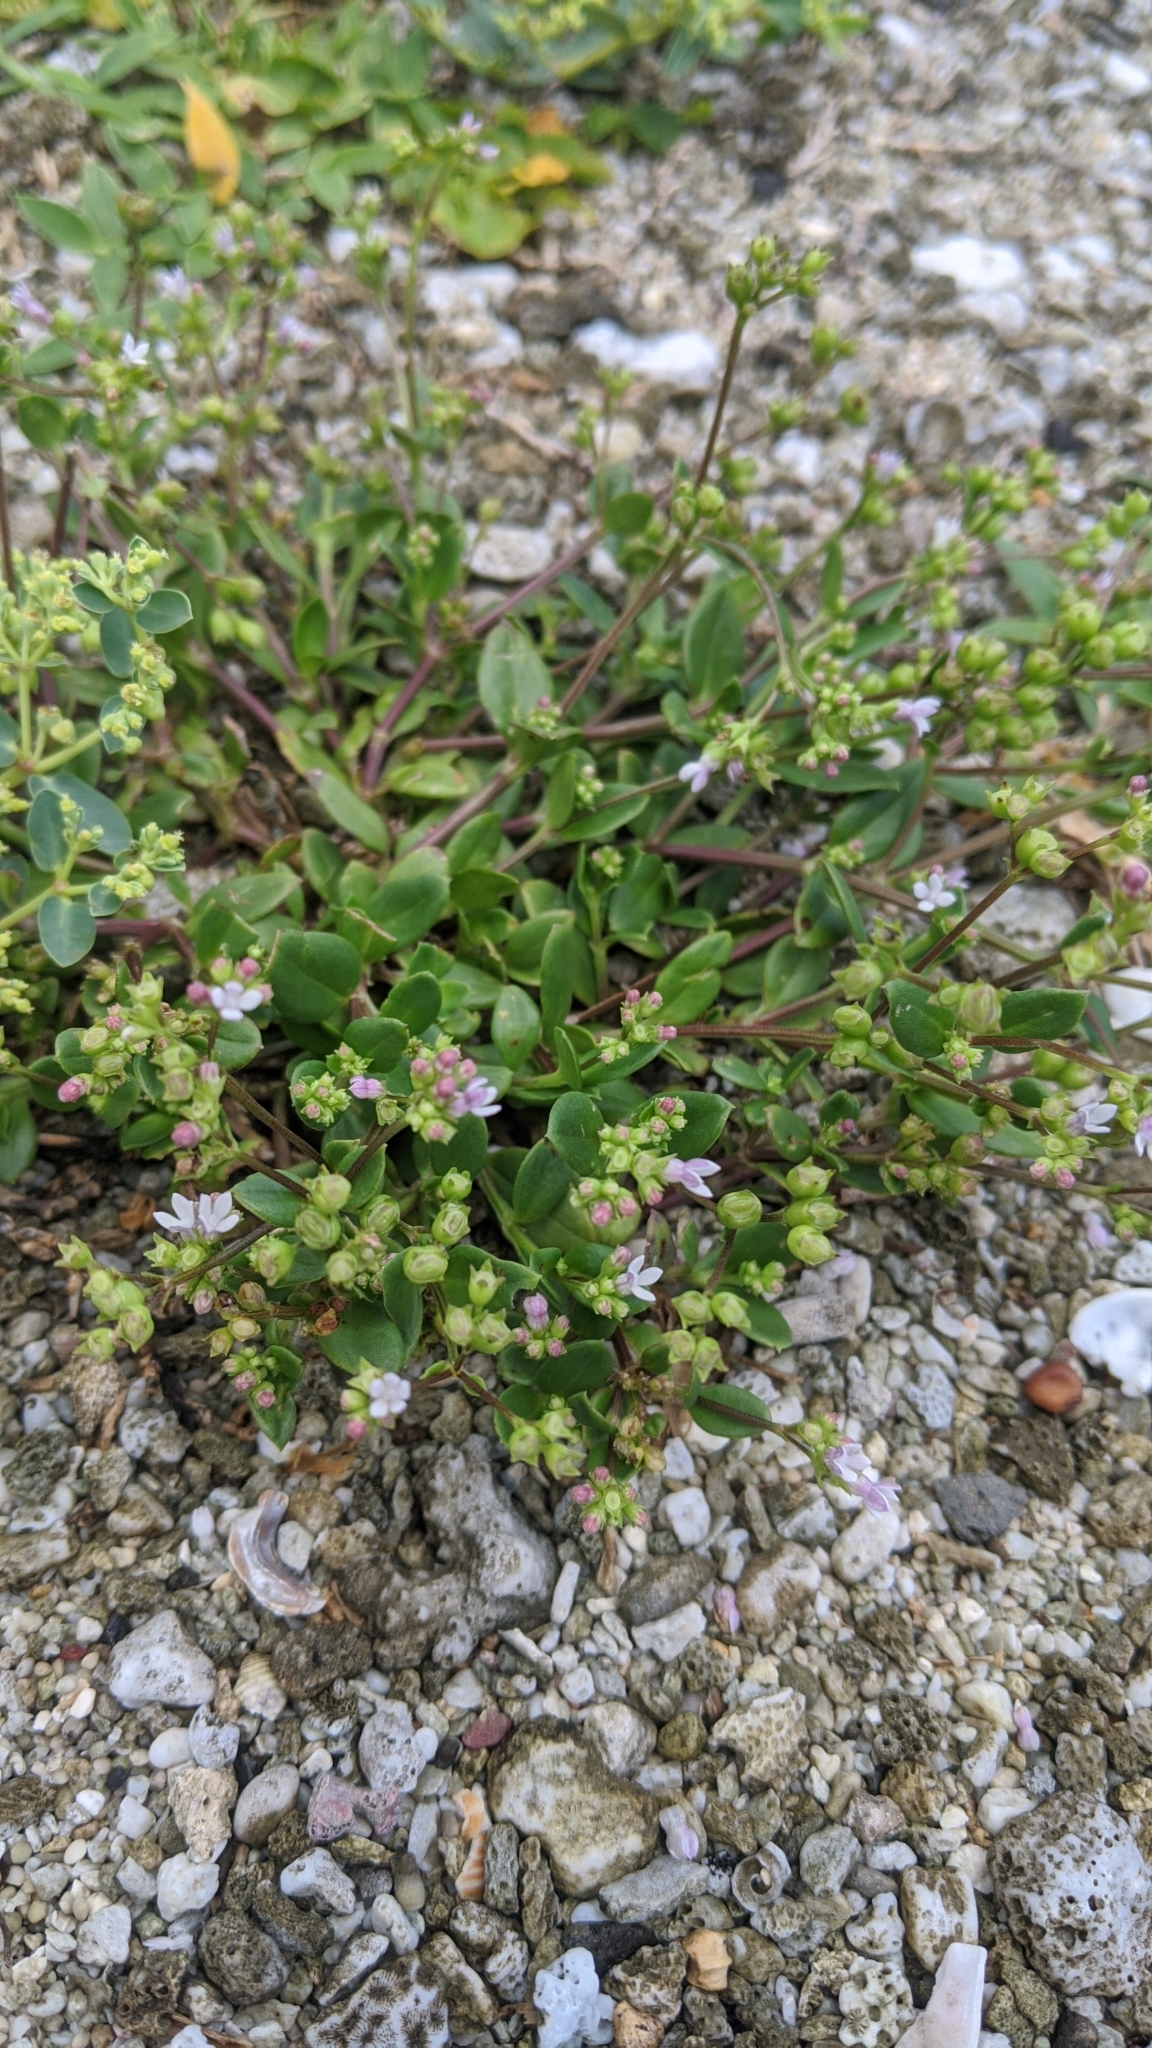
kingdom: Plantae
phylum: Tracheophyta
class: Magnoliopsida
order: Gentianales
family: Rubiaceae
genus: Leptopetalum
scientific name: Leptopetalum racemosum
